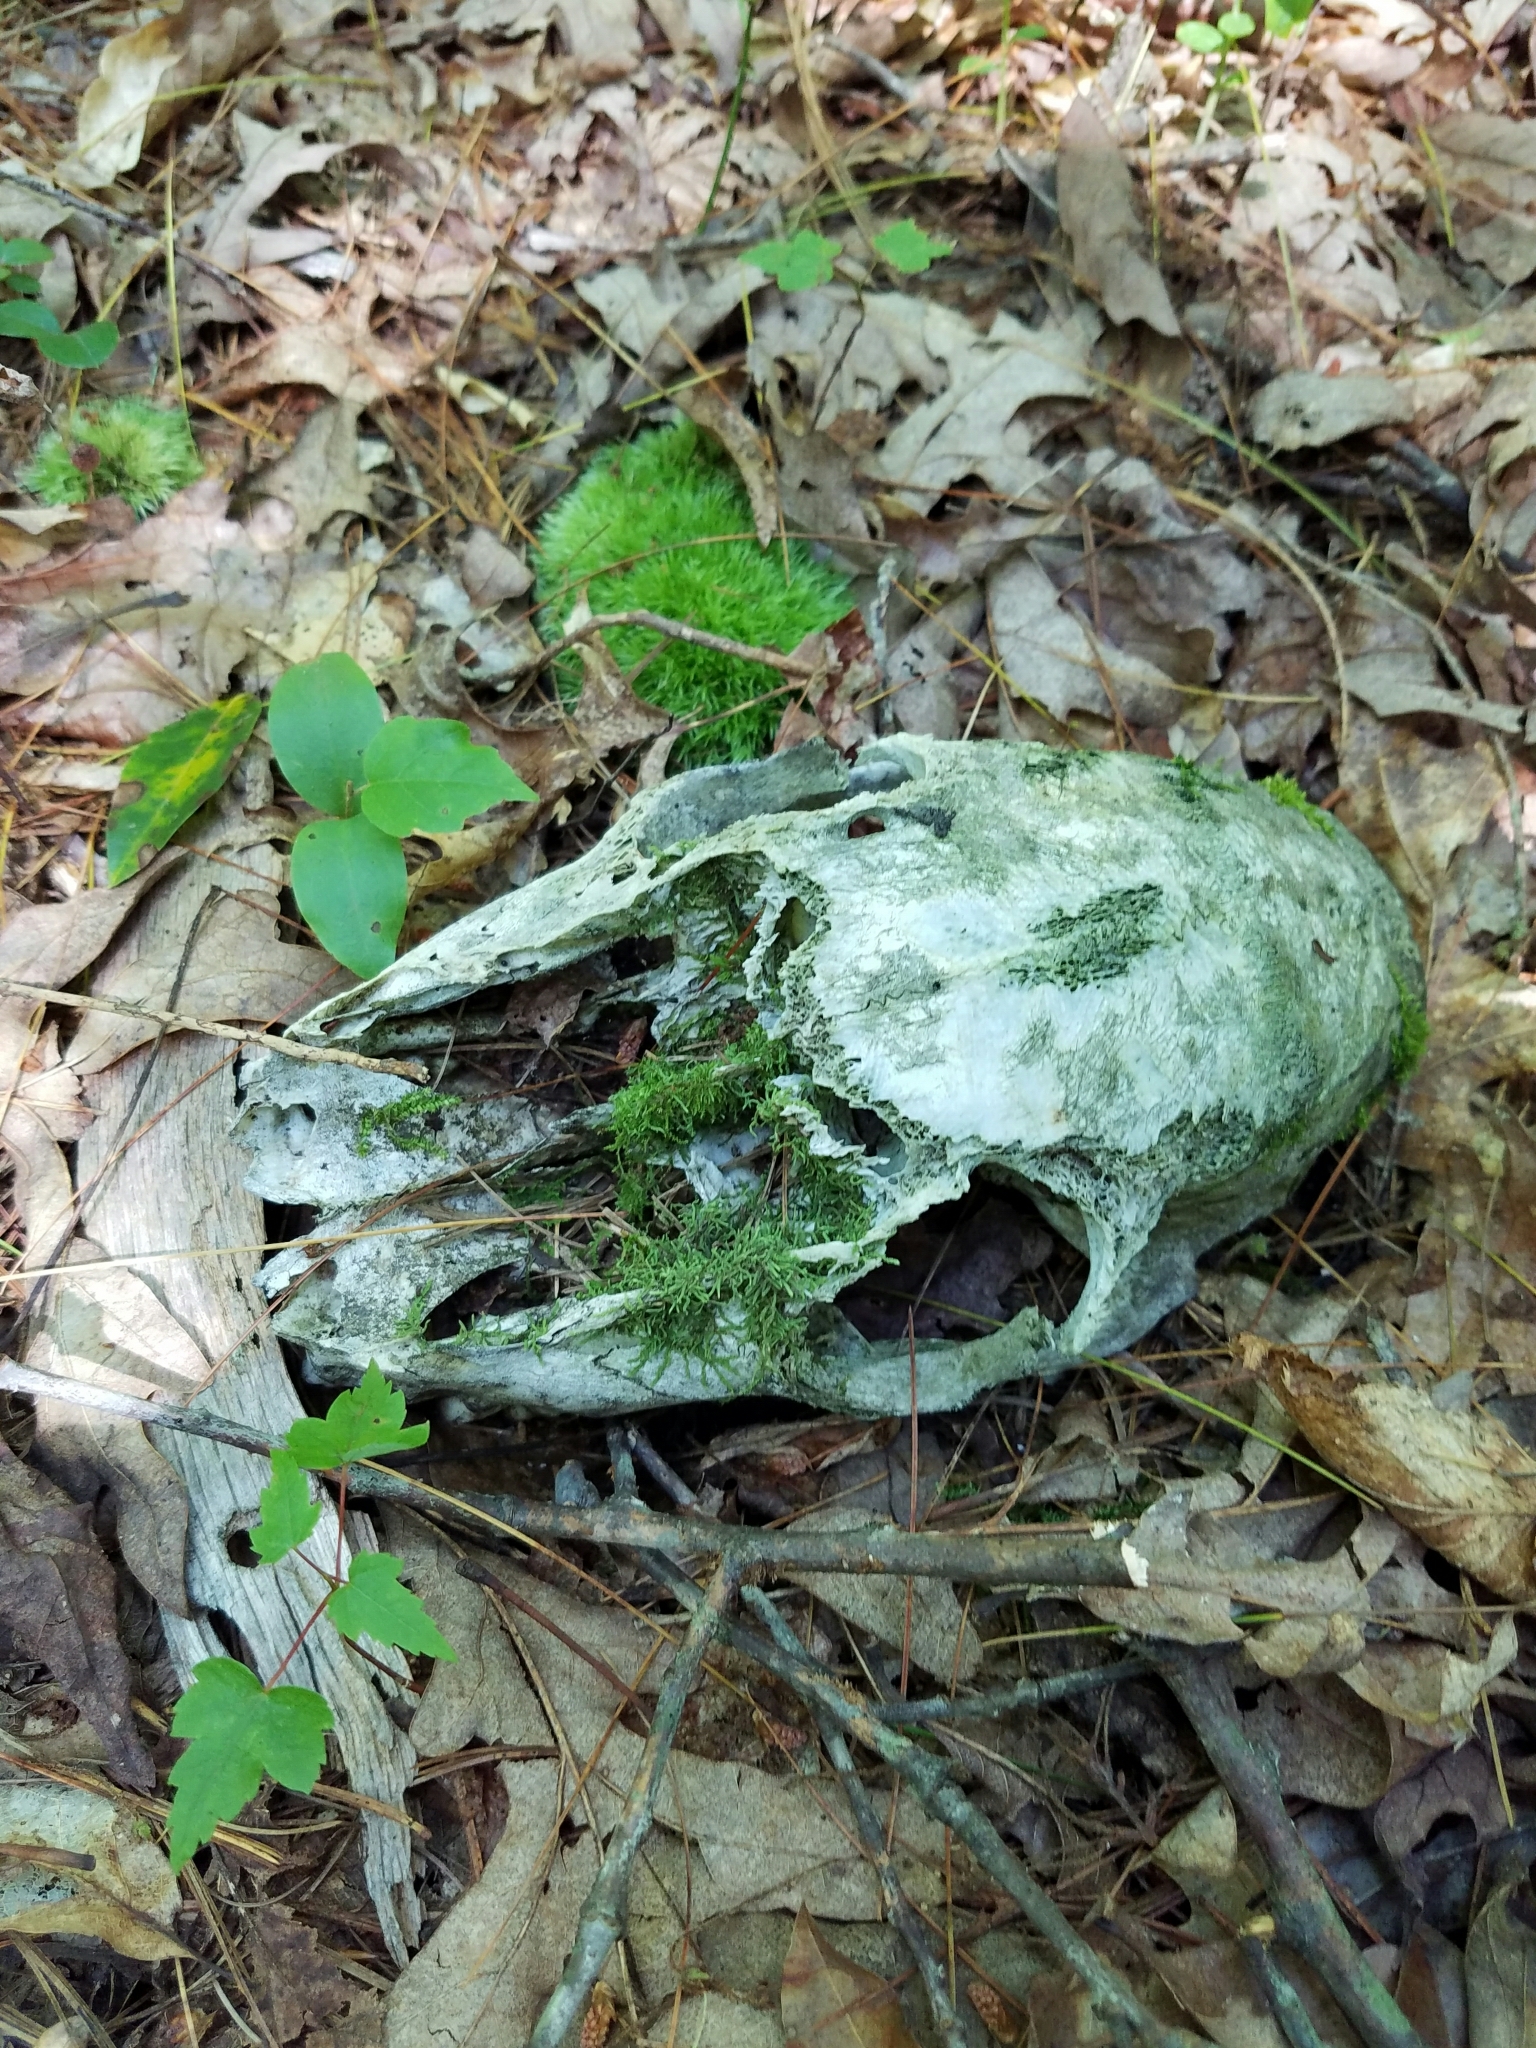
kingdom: Animalia
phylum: Chordata
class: Mammalia
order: Artiodactyla
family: Cervidae
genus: Odocoileus
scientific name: Odocoileus virginianus
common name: White-tailed deer
